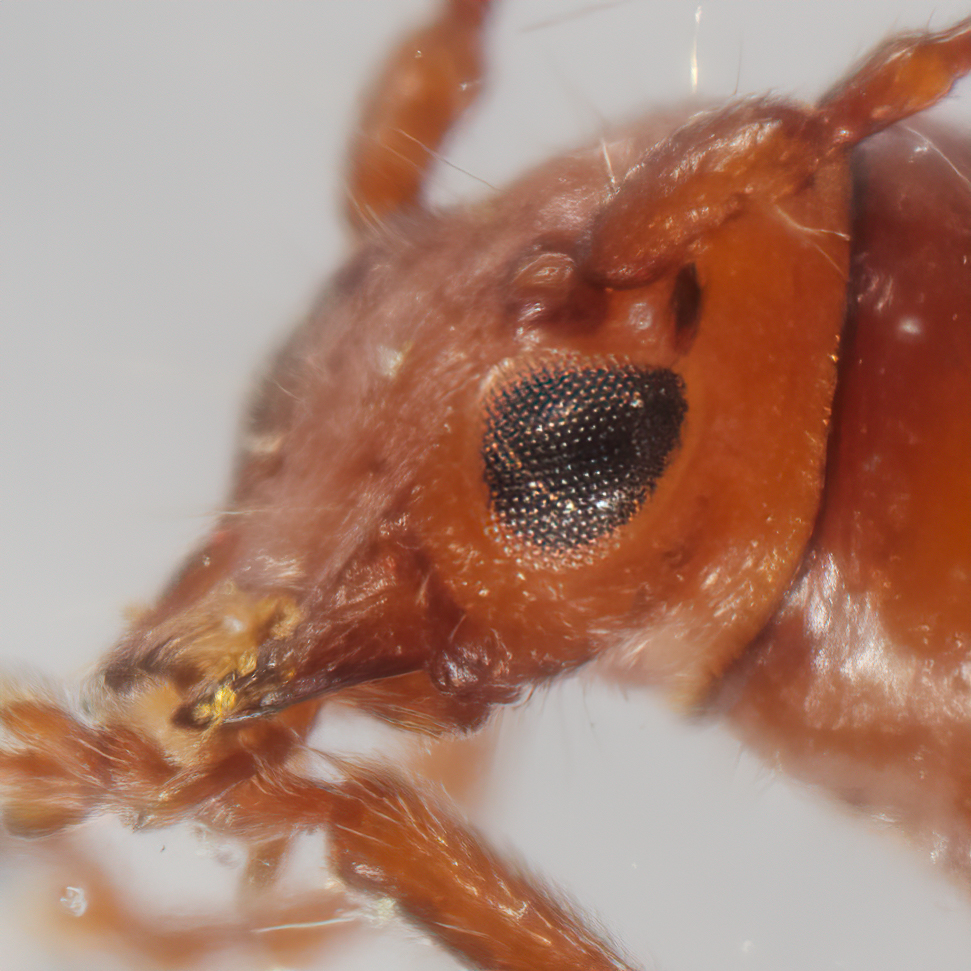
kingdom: Animalia
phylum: Arthropoda
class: Insecta
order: Coleoptera
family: Cerambycidae
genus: Euderces
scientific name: Euderces reichei
